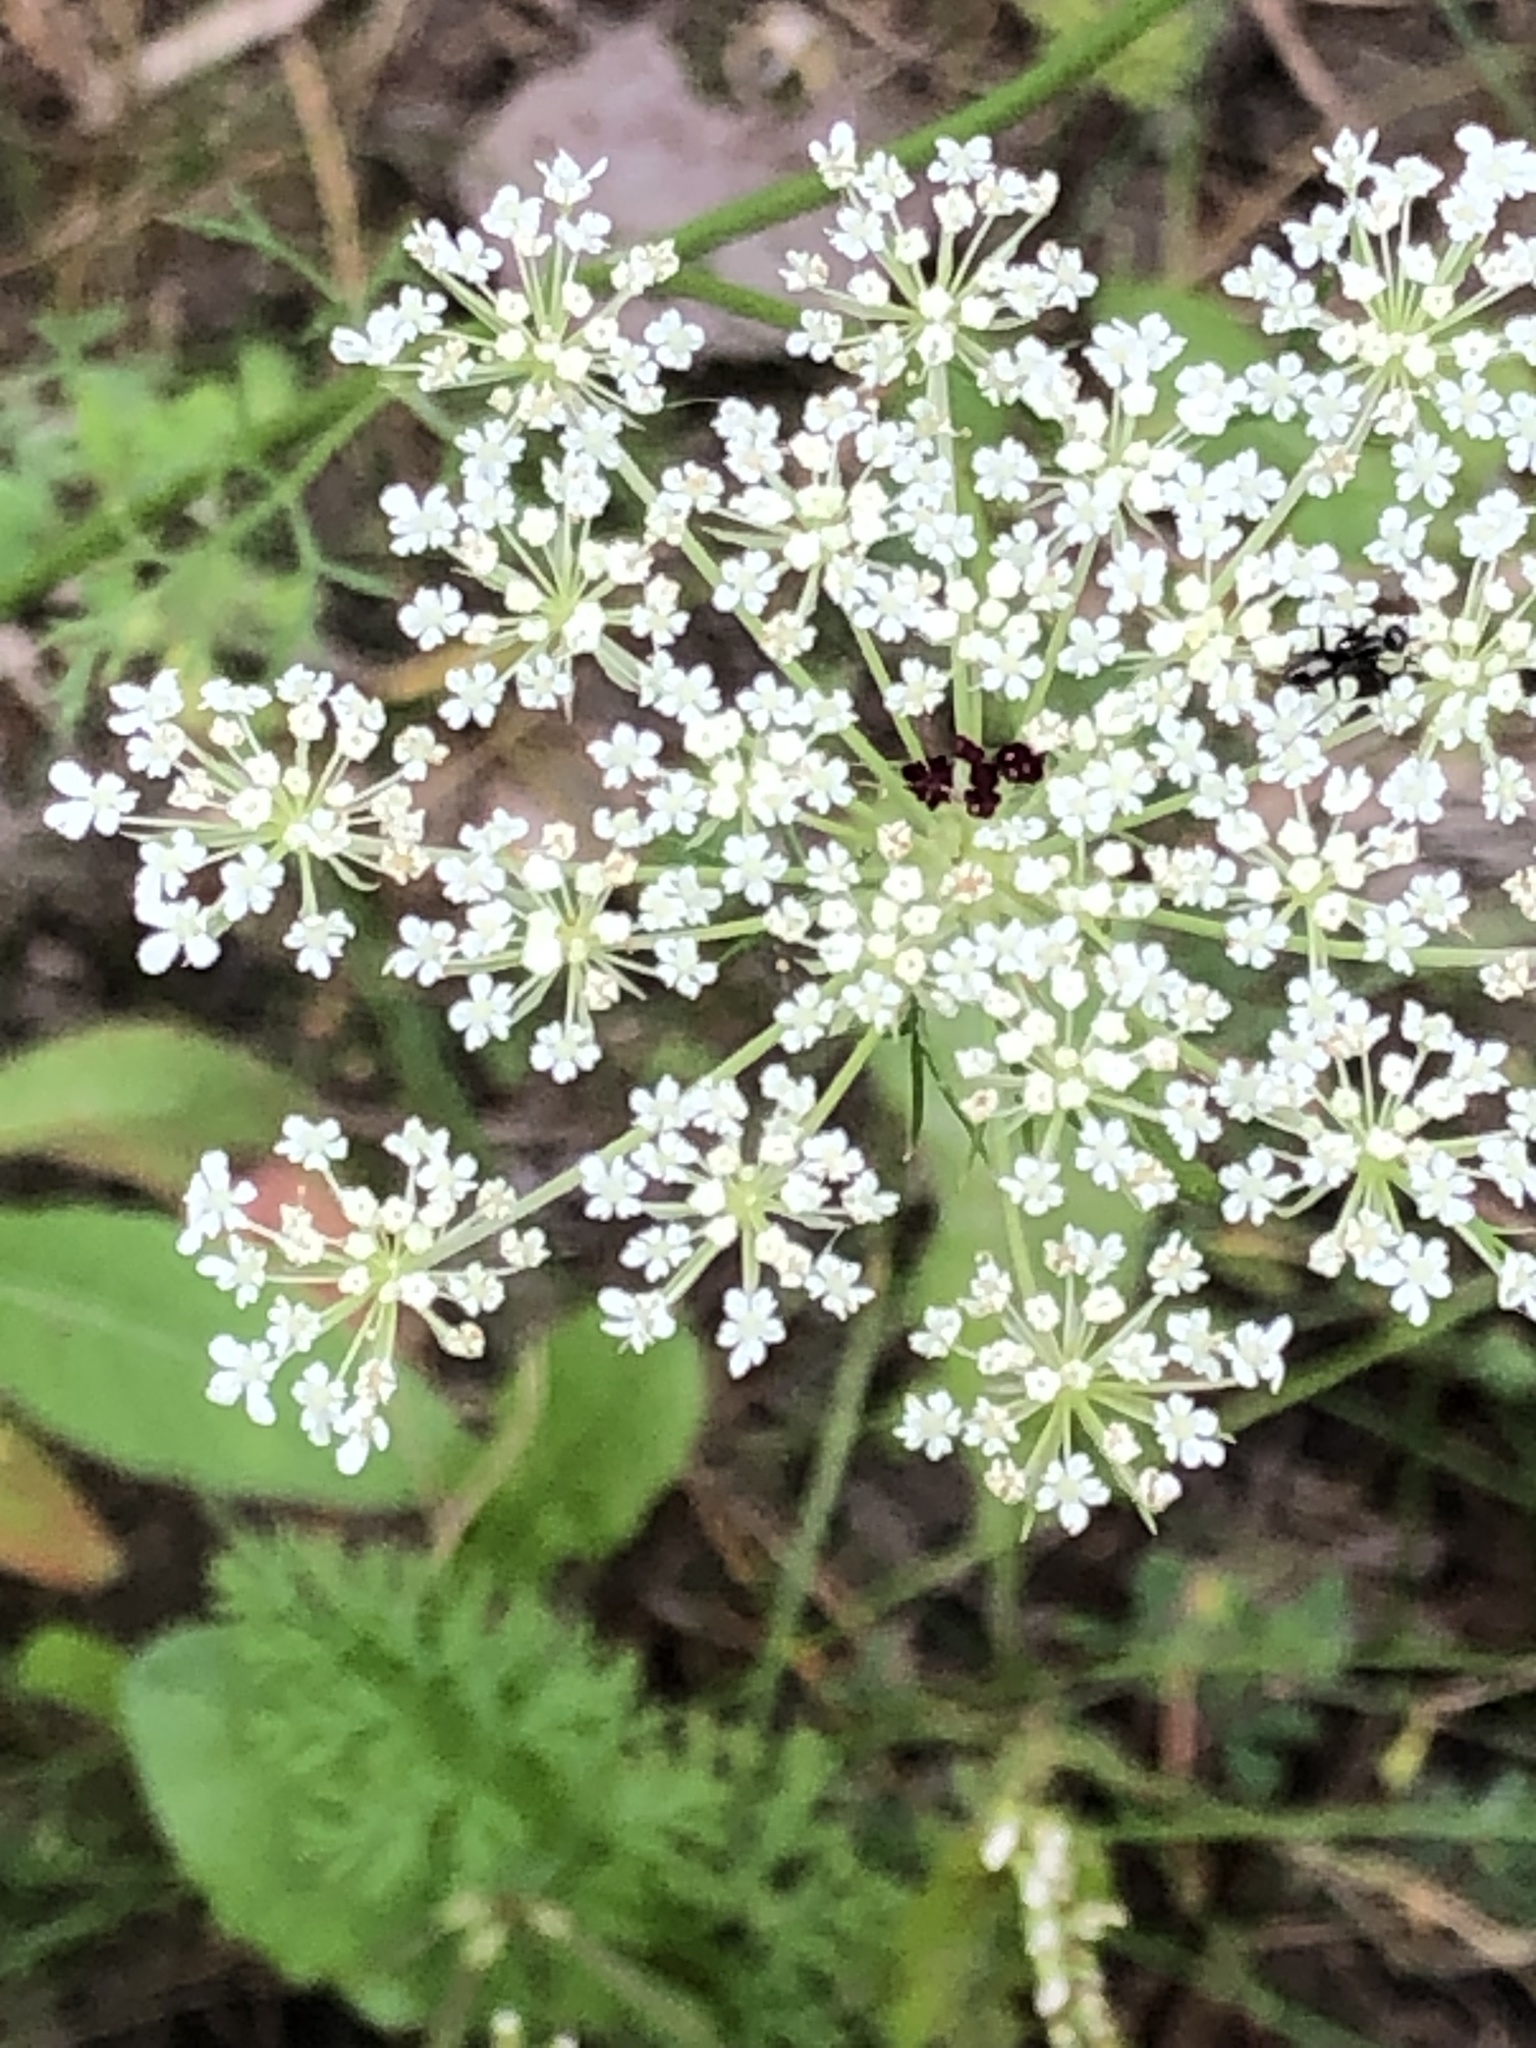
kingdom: Plantae
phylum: Tracheophyta
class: Magnoliopsida
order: Apiales
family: Apiaceae
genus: Daucus
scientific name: Daucus carota
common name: Wild carrot
